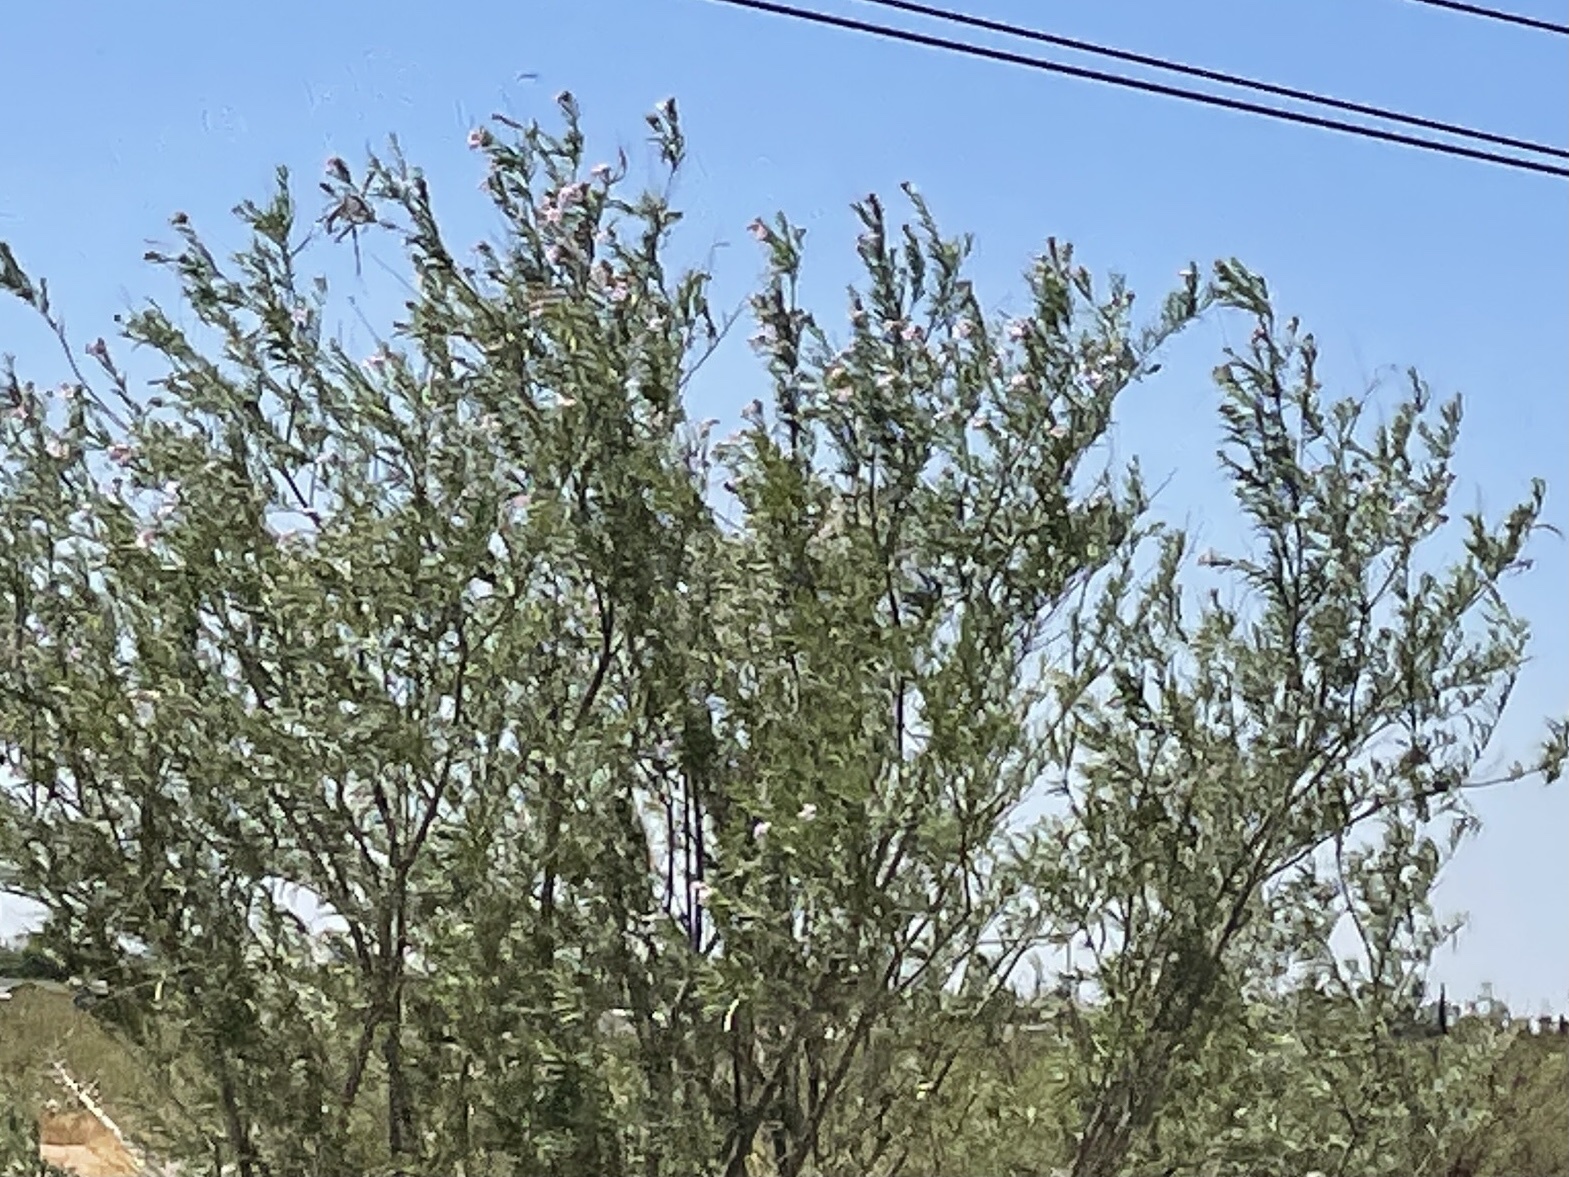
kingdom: Plantae
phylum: Tracheophyta
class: Magnoliopsida
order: Lamiales
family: Bignoniaceae
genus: Chilopsis
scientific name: Chilopsis linearis
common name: Desert-willow
